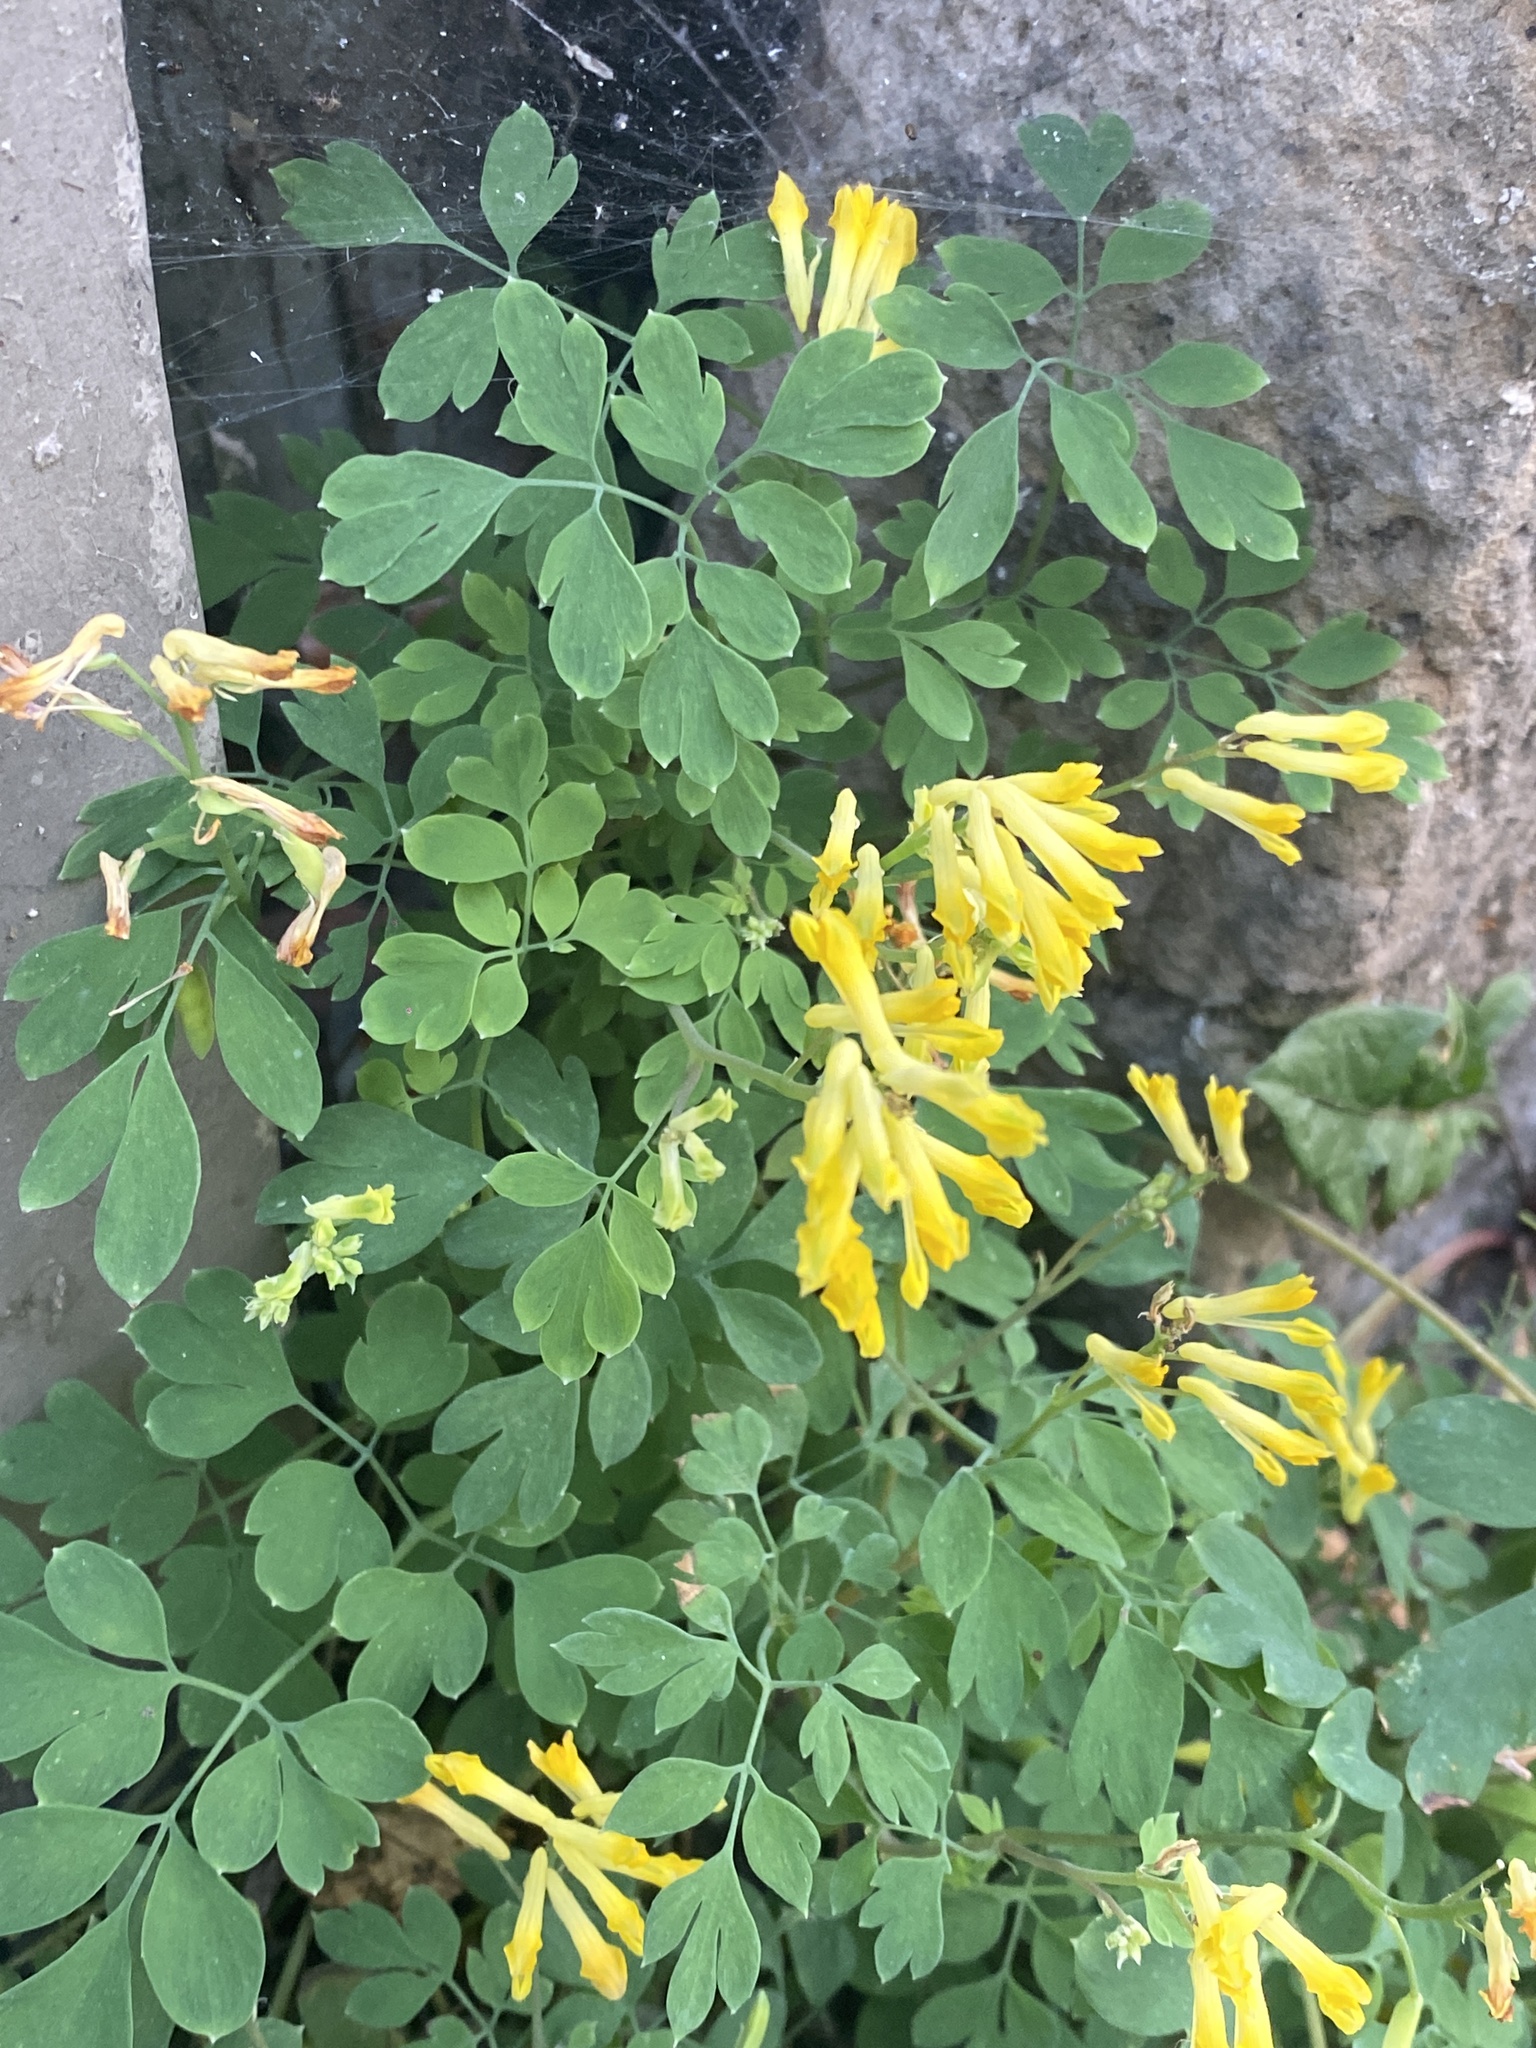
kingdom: Plantae
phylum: Tracheophyta
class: Magnoliopsida
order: Ranunculales
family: Papaveraceae
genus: Pseudofumaria
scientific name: Pseudofumaria lutea
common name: Yellow corydalis
